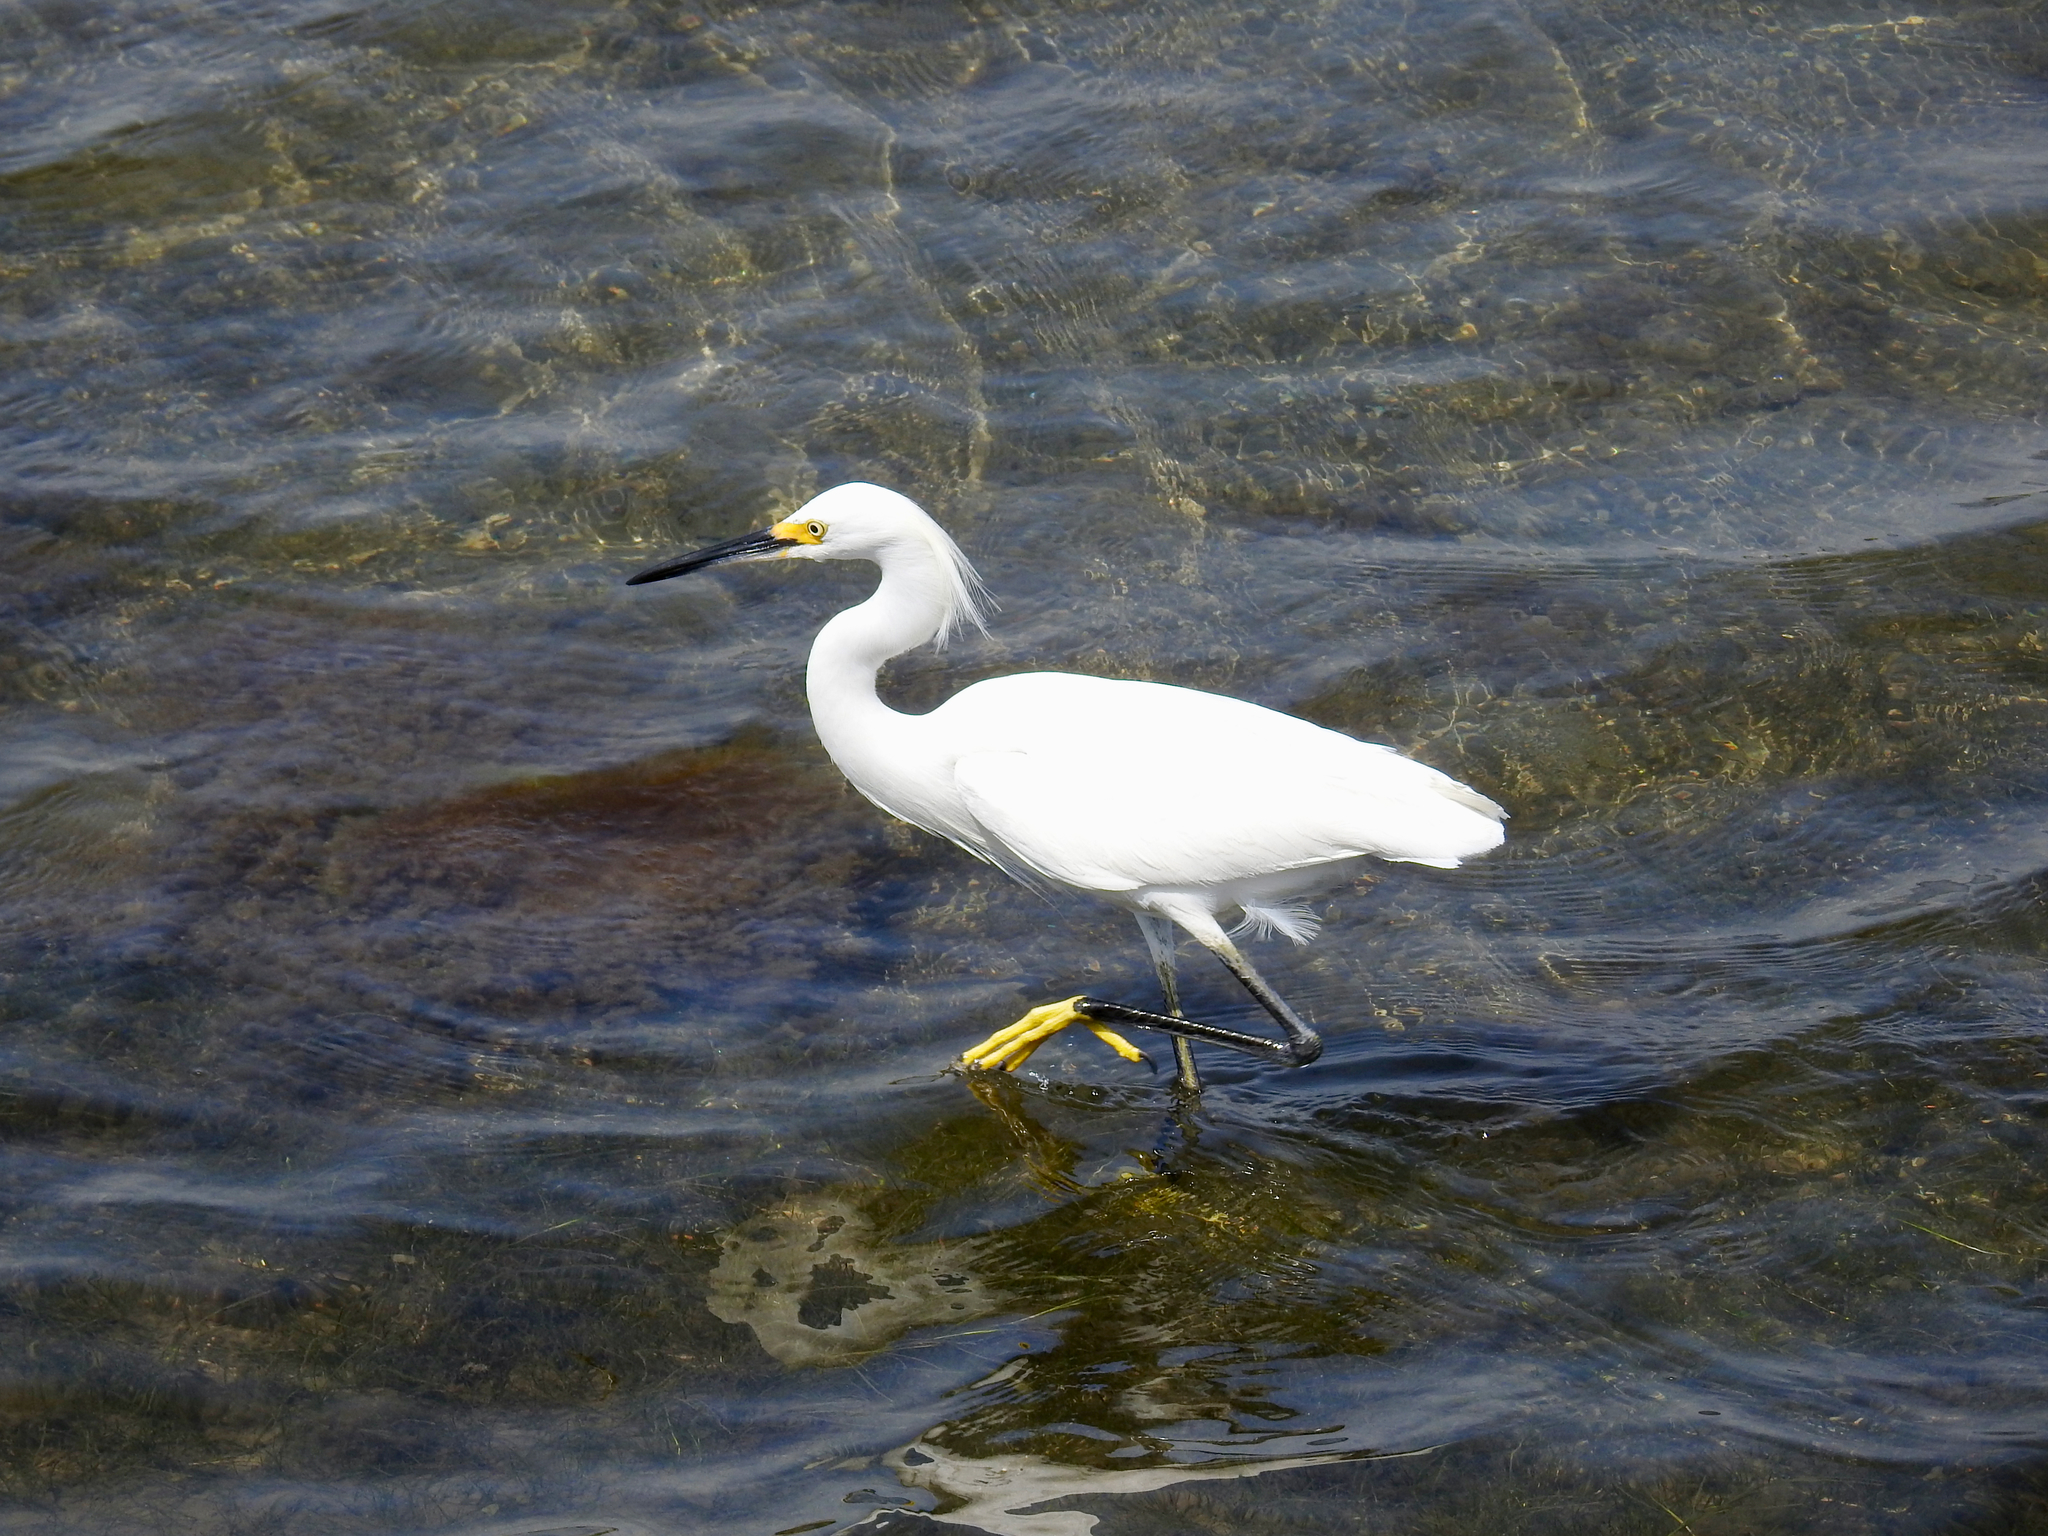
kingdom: Animalia
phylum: Chordata
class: Aves
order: Pelecaniformes
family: Ardeidae
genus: Egretta
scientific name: Egretta thula
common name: Snowy egret
